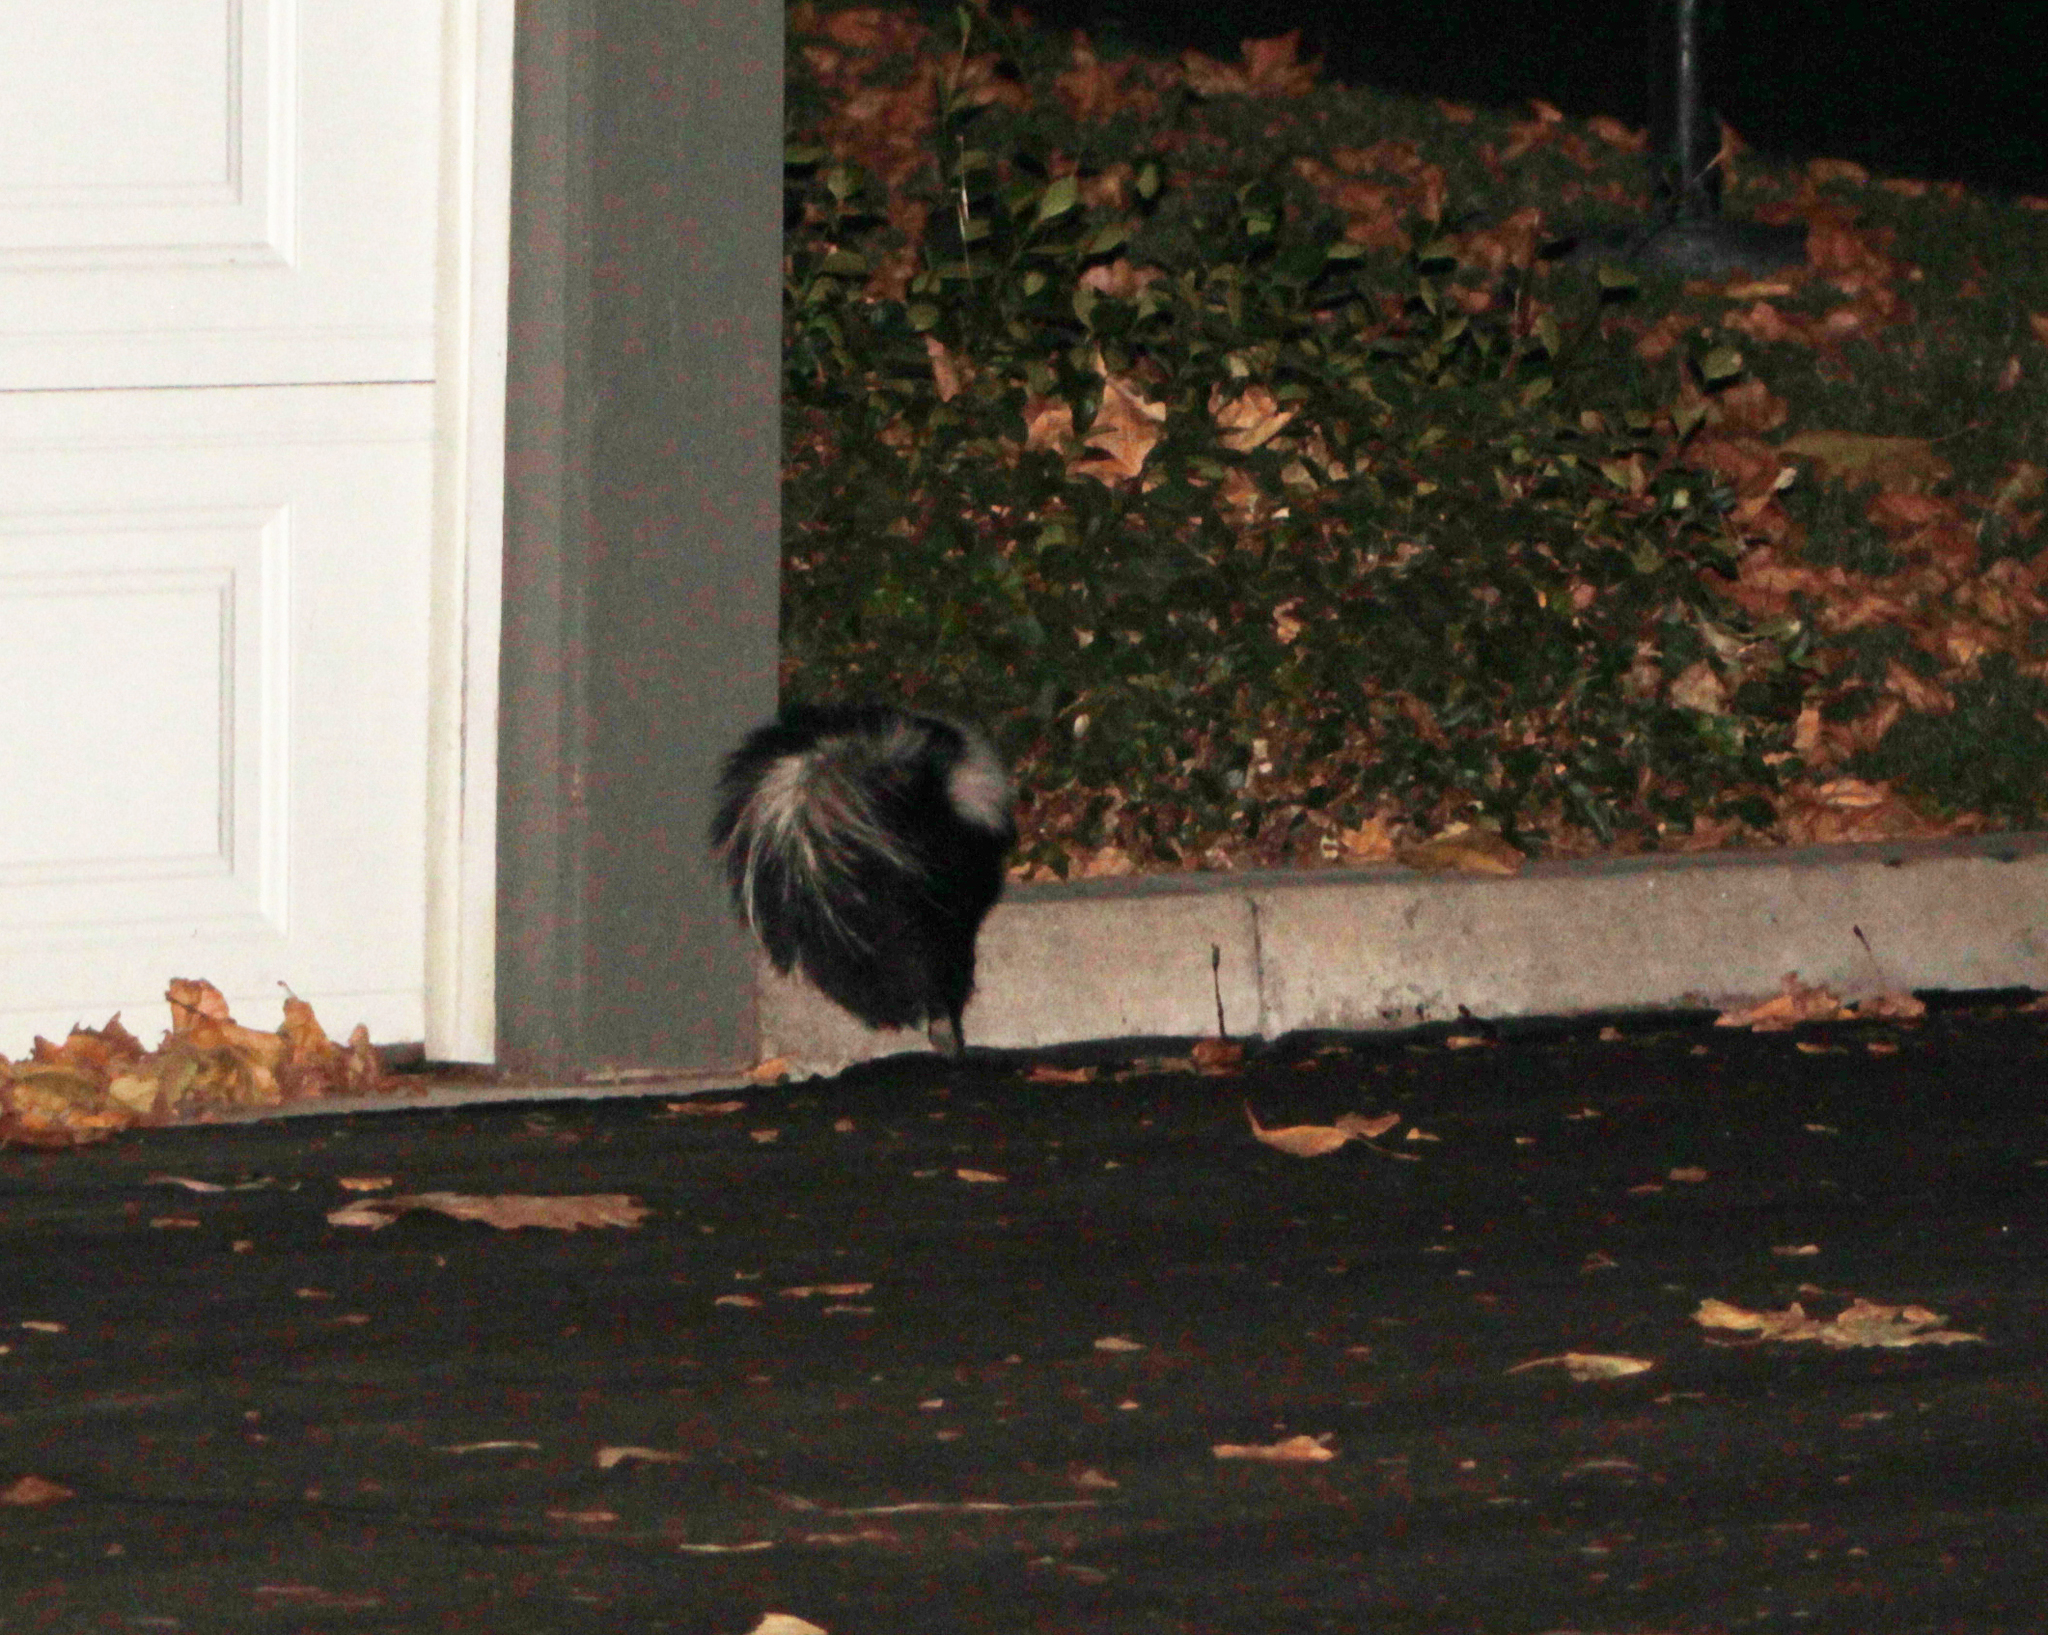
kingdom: Animalia
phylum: Chordata
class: Mammalia
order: Carnivora
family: Mephitidae
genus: Mephitis
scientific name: Mephitis mephitis
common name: Striped skunk
